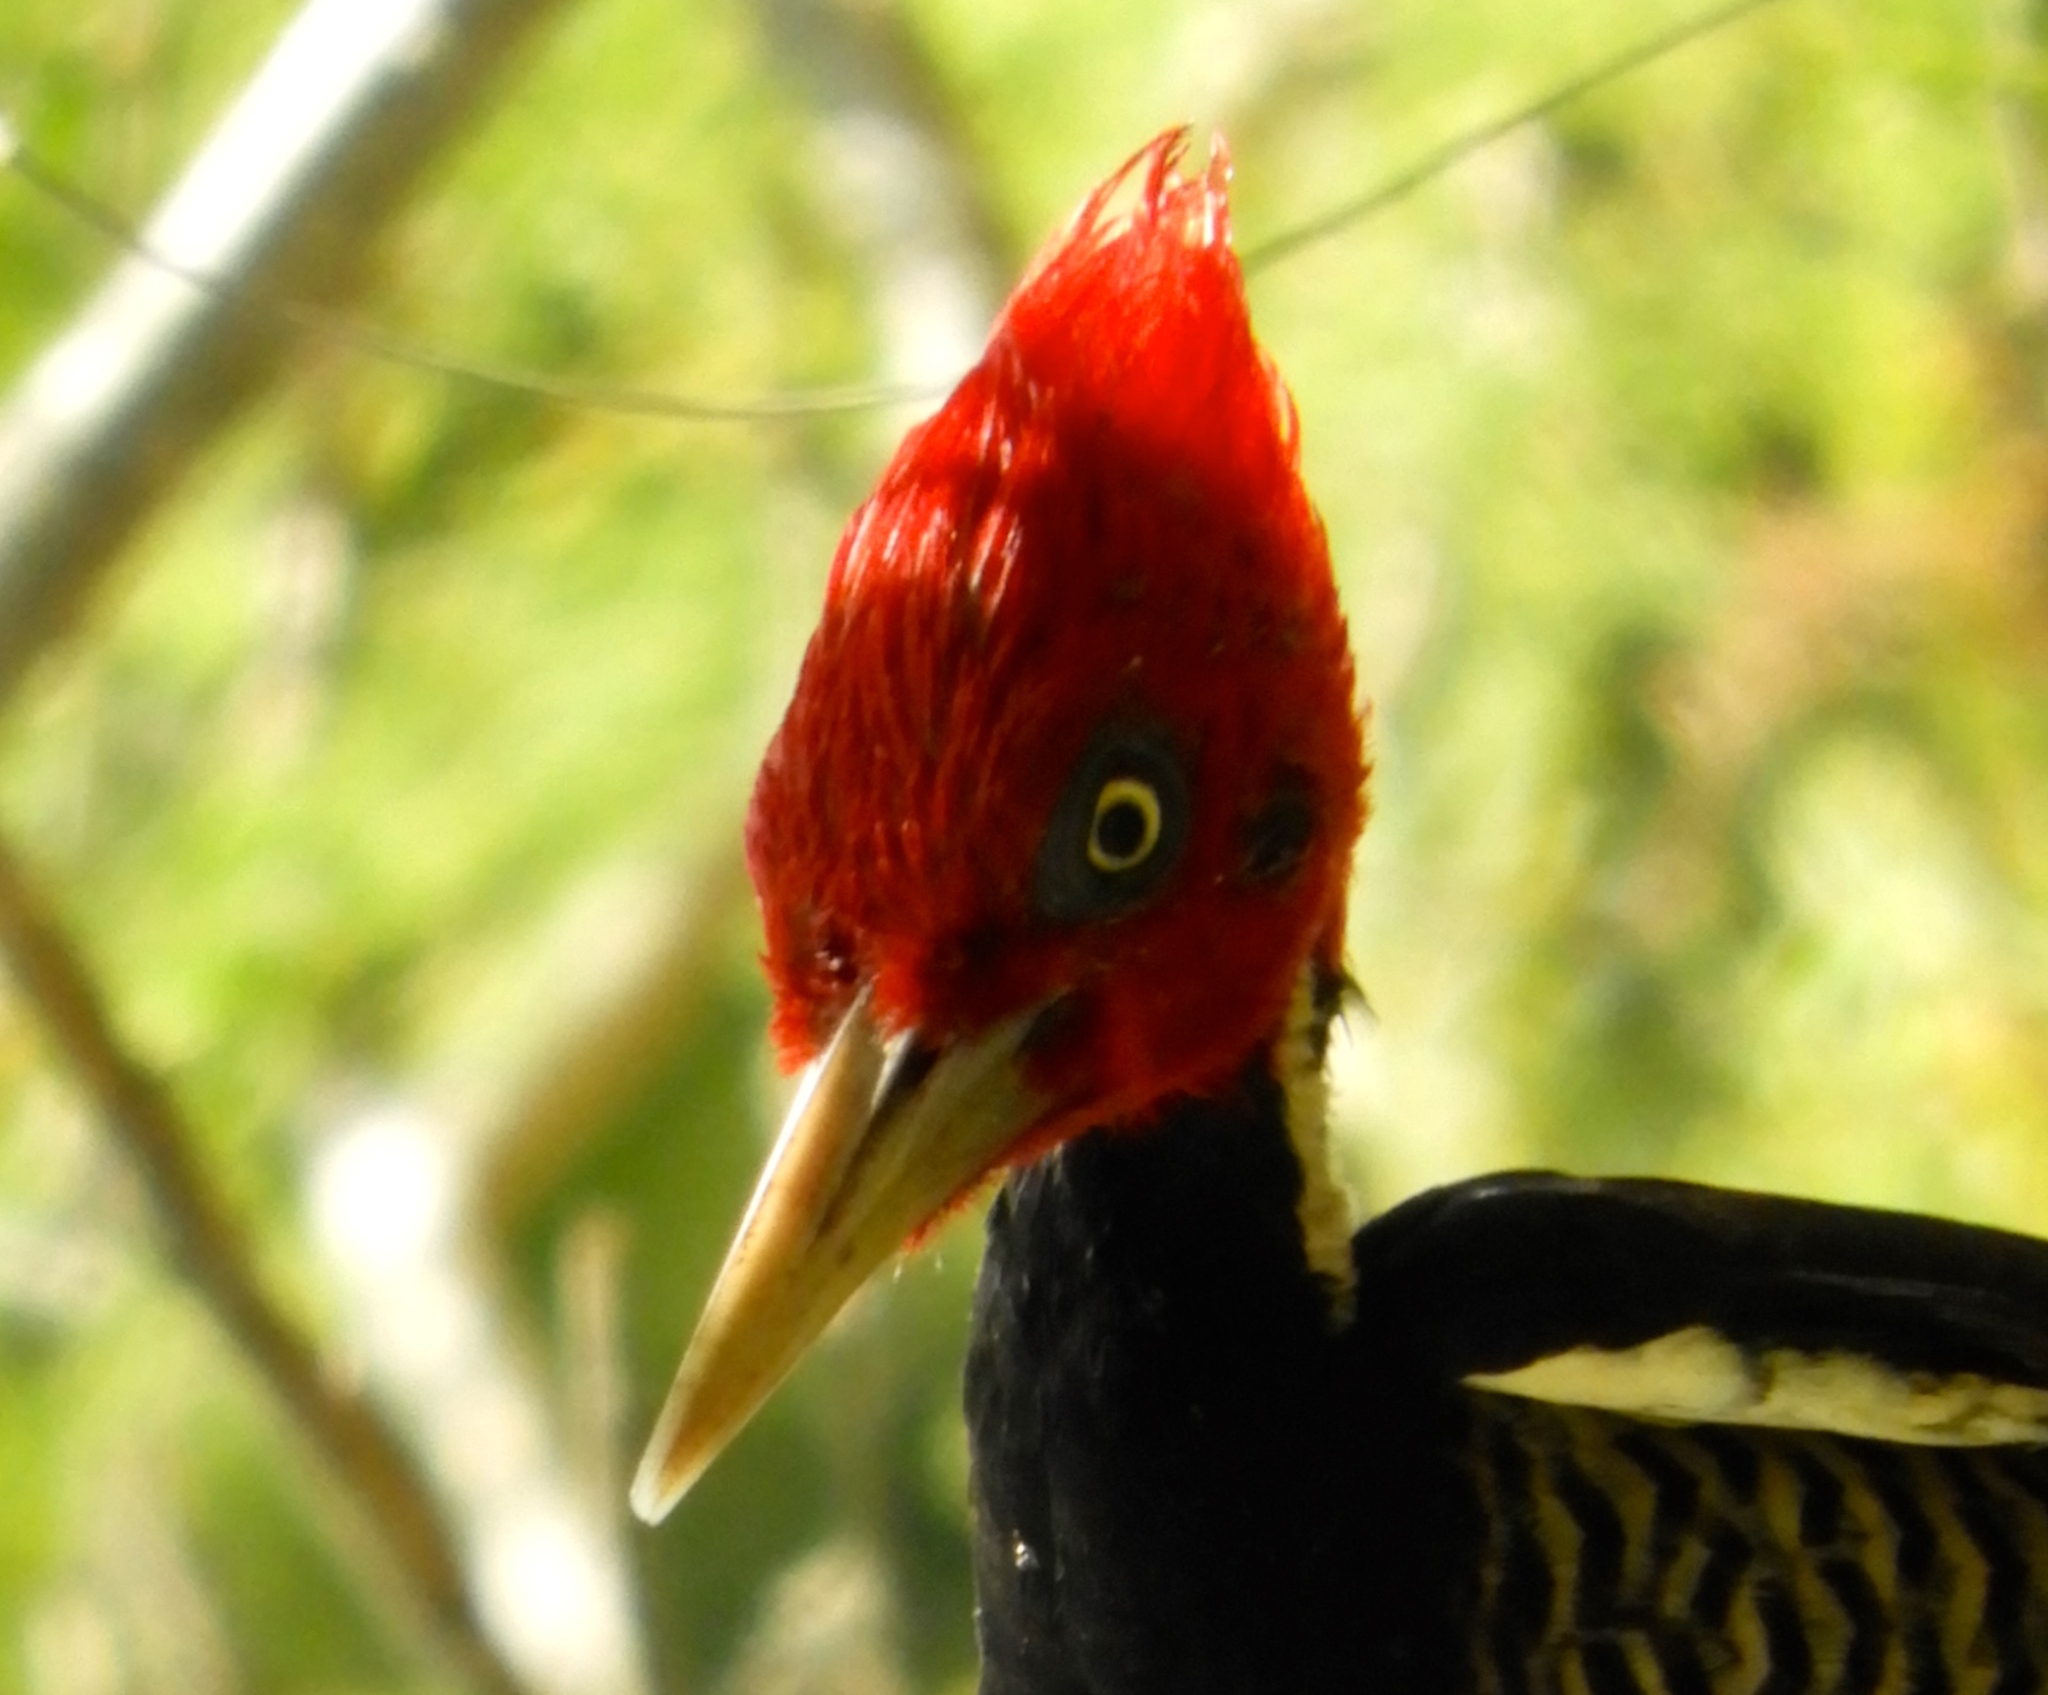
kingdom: Animalia
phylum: Chordata
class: Aves
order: Piciformes
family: Picidae
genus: Campephilus
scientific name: Campephilus guatemalensis
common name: Pale-billed woodpecker
